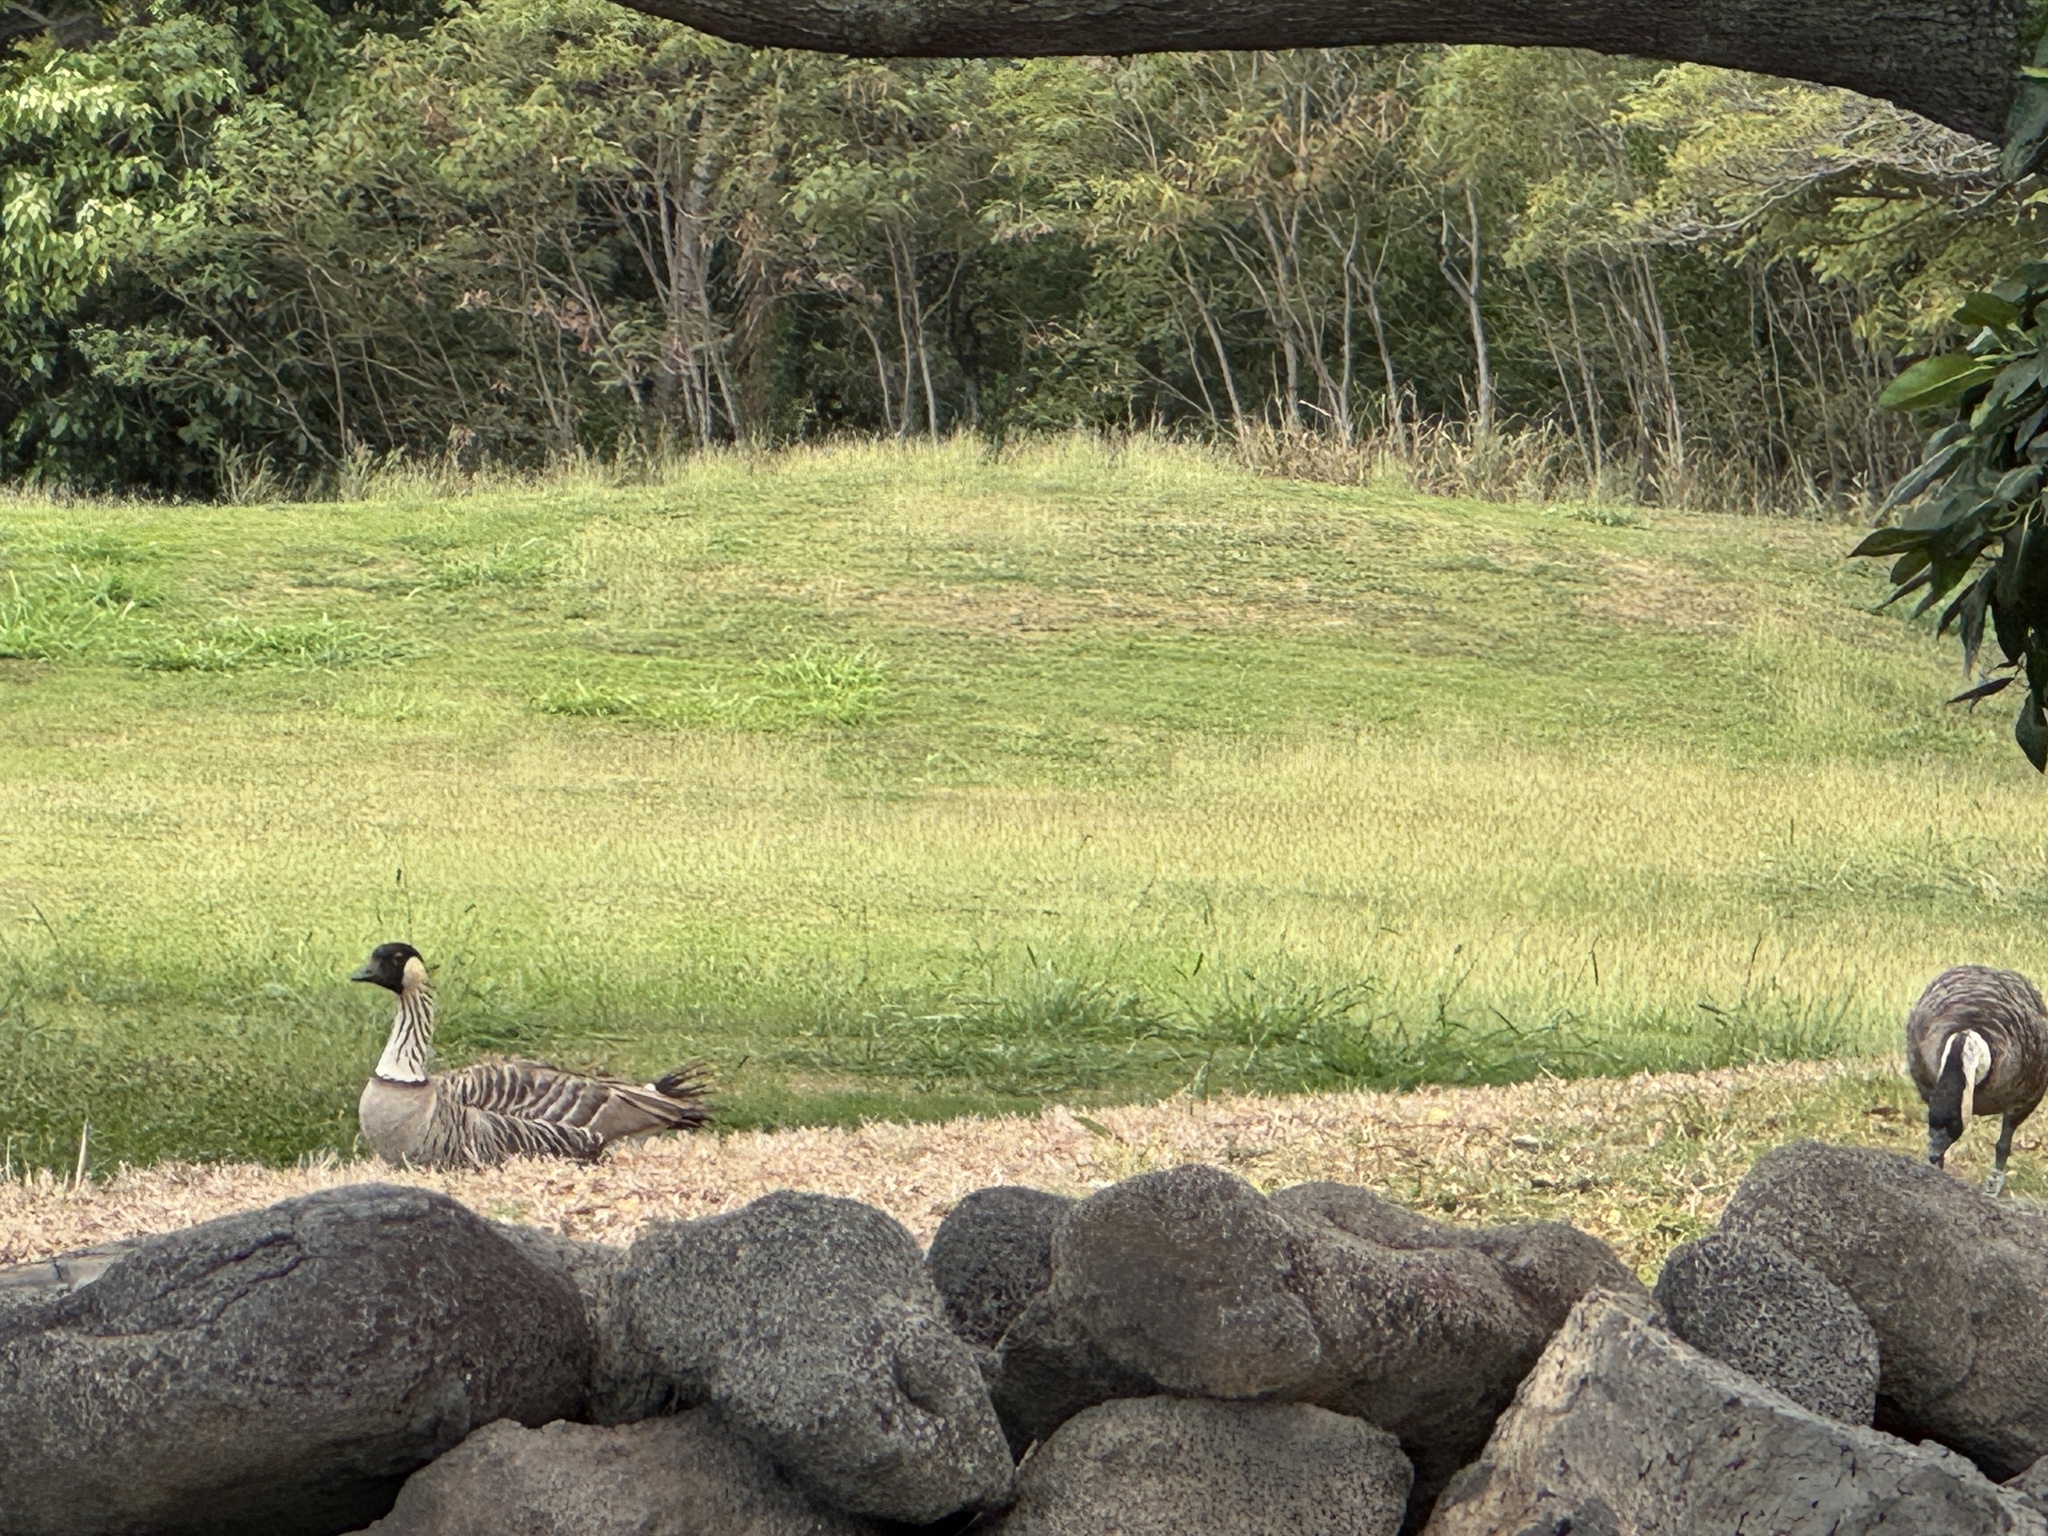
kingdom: Animalia
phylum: Chordata
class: Aves
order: Anseriformes
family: Anatidae
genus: Branta
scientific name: Branta sandvicensis
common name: Nene
